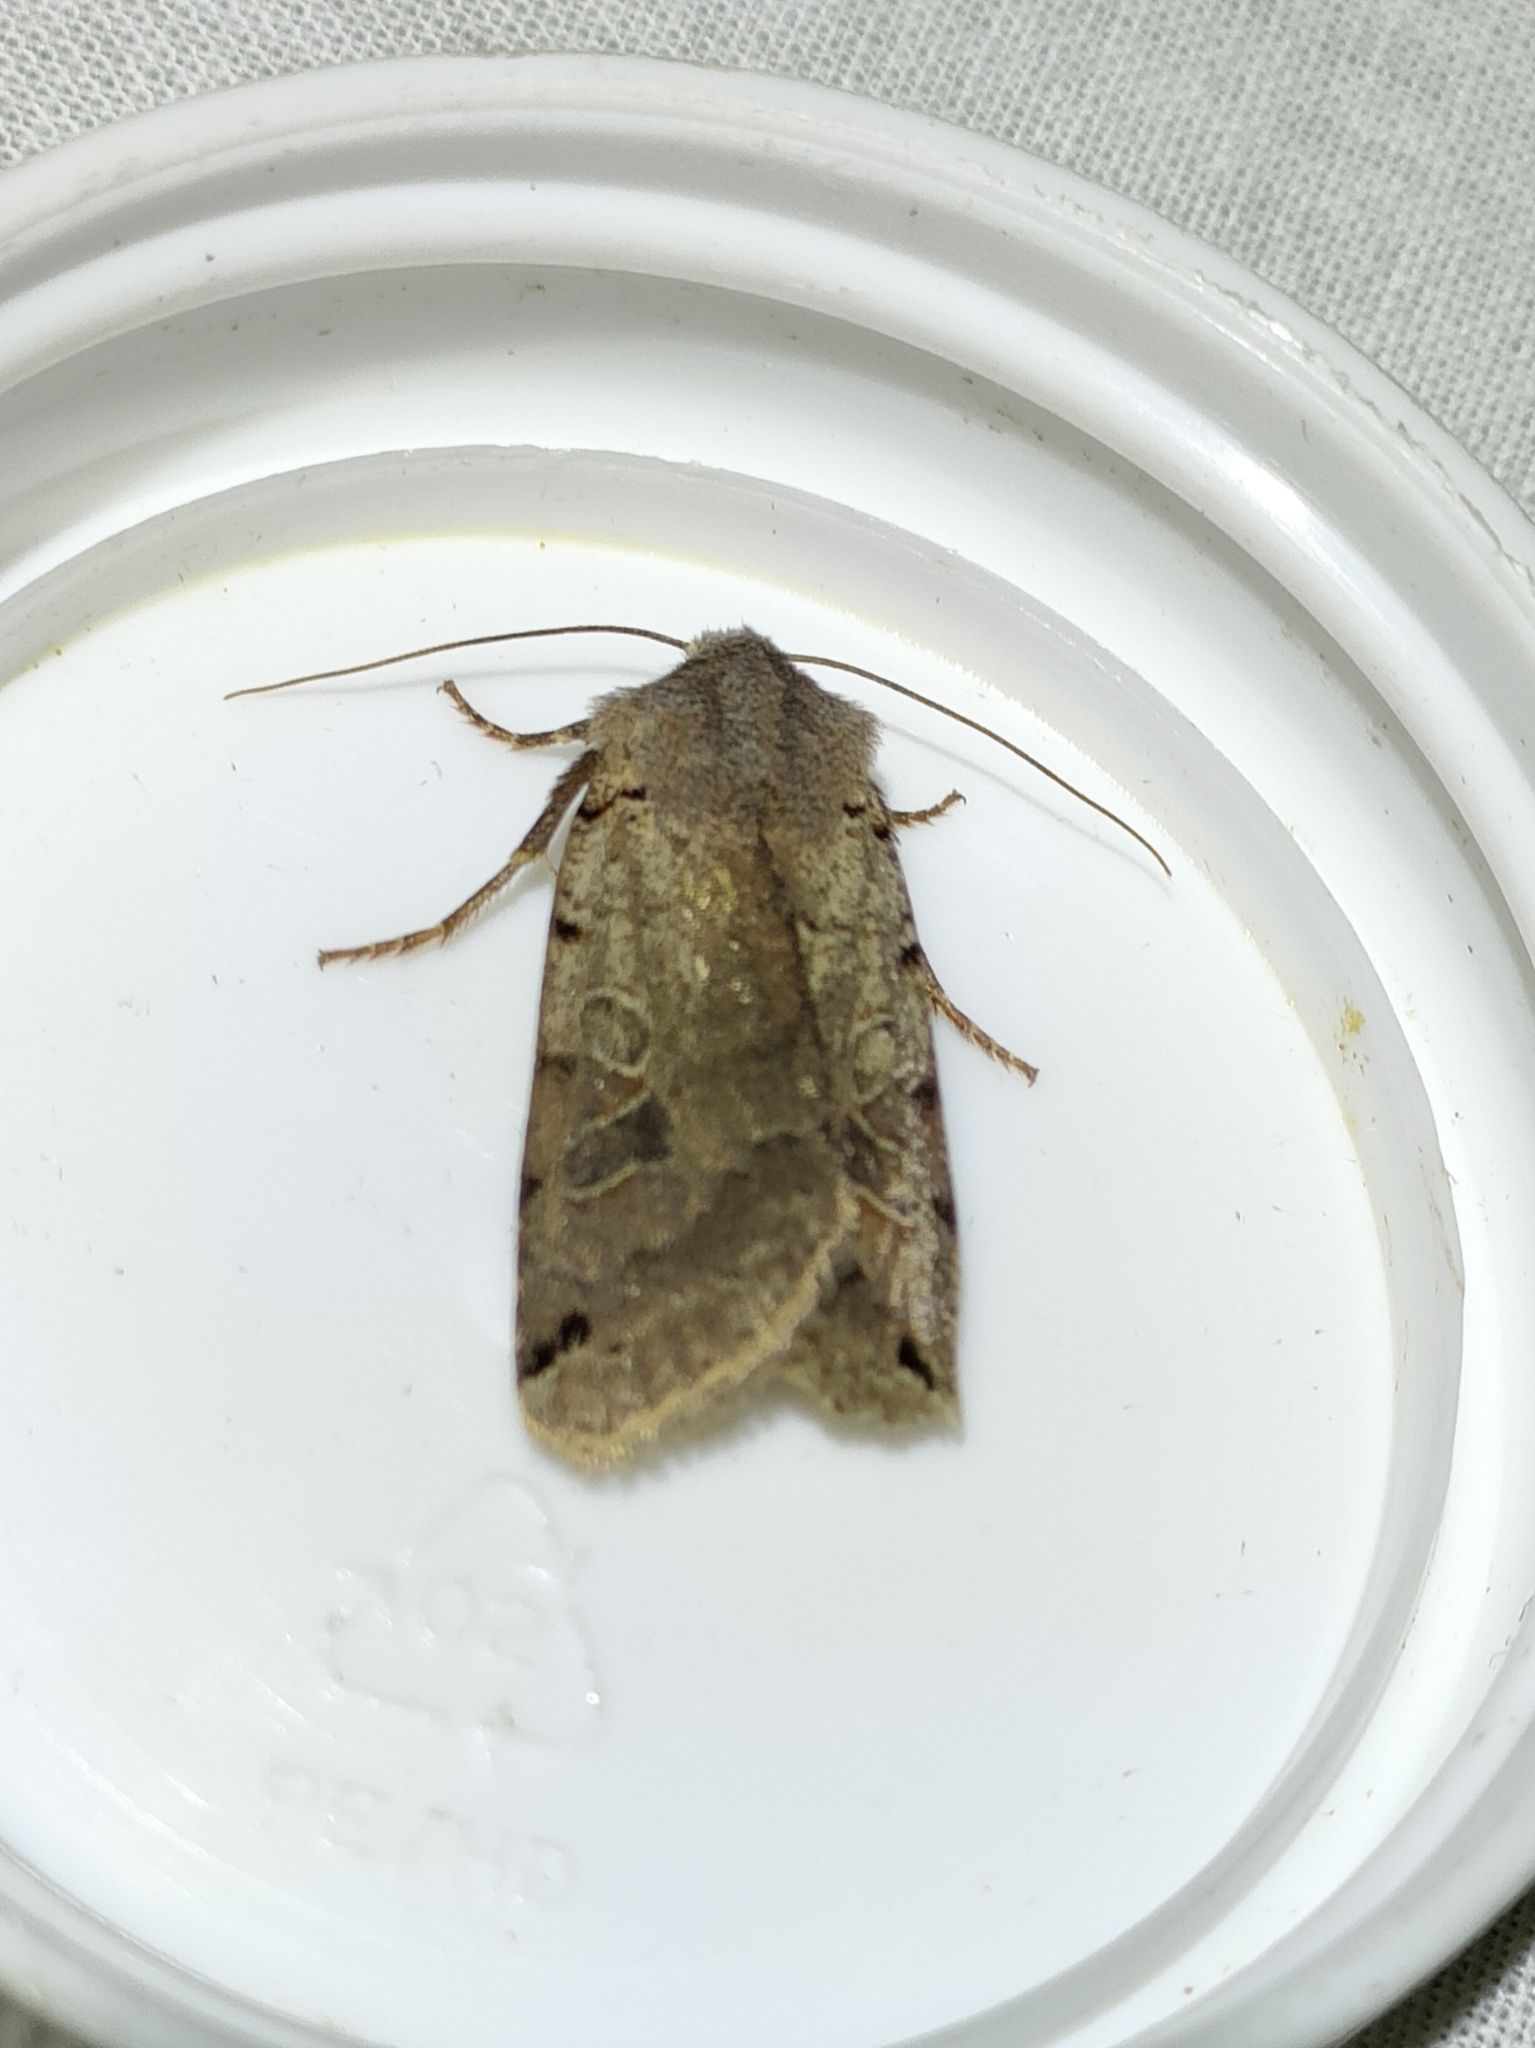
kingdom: Animalia
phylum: Arthropoda
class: Insecta
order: Lepidoptera
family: Noctuidae
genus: Agrochola
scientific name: Agrochola litura
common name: Brown-spot pinion
